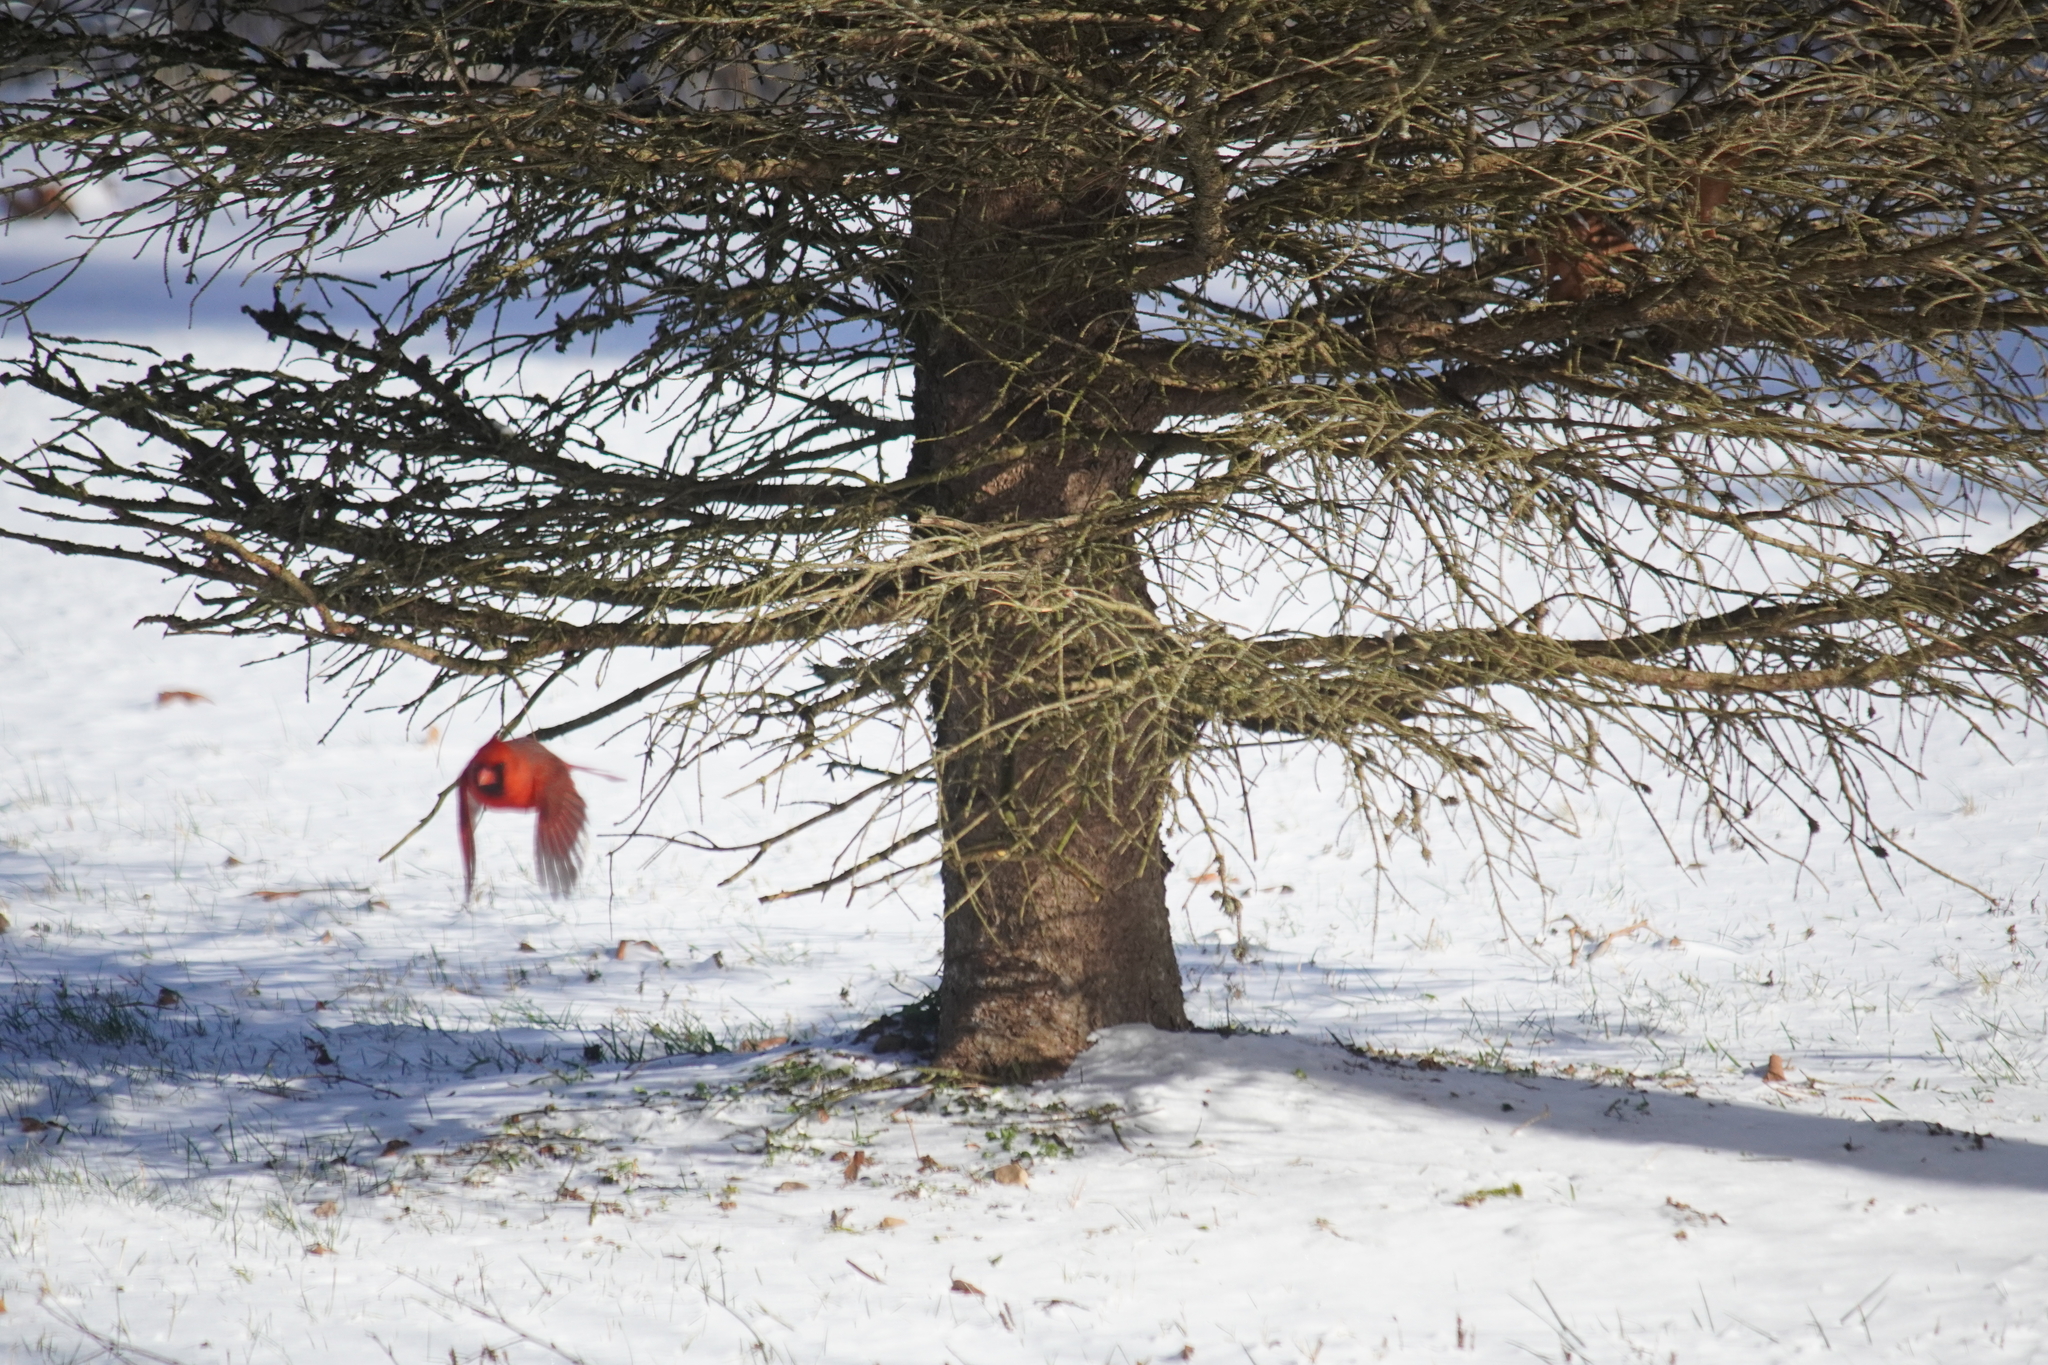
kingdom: Animalia
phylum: Chordata
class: Aves
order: Passeriformes
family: Cardinalidae
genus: Cardinalis
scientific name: Cardinalis cardinalis
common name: Northern cardinal
